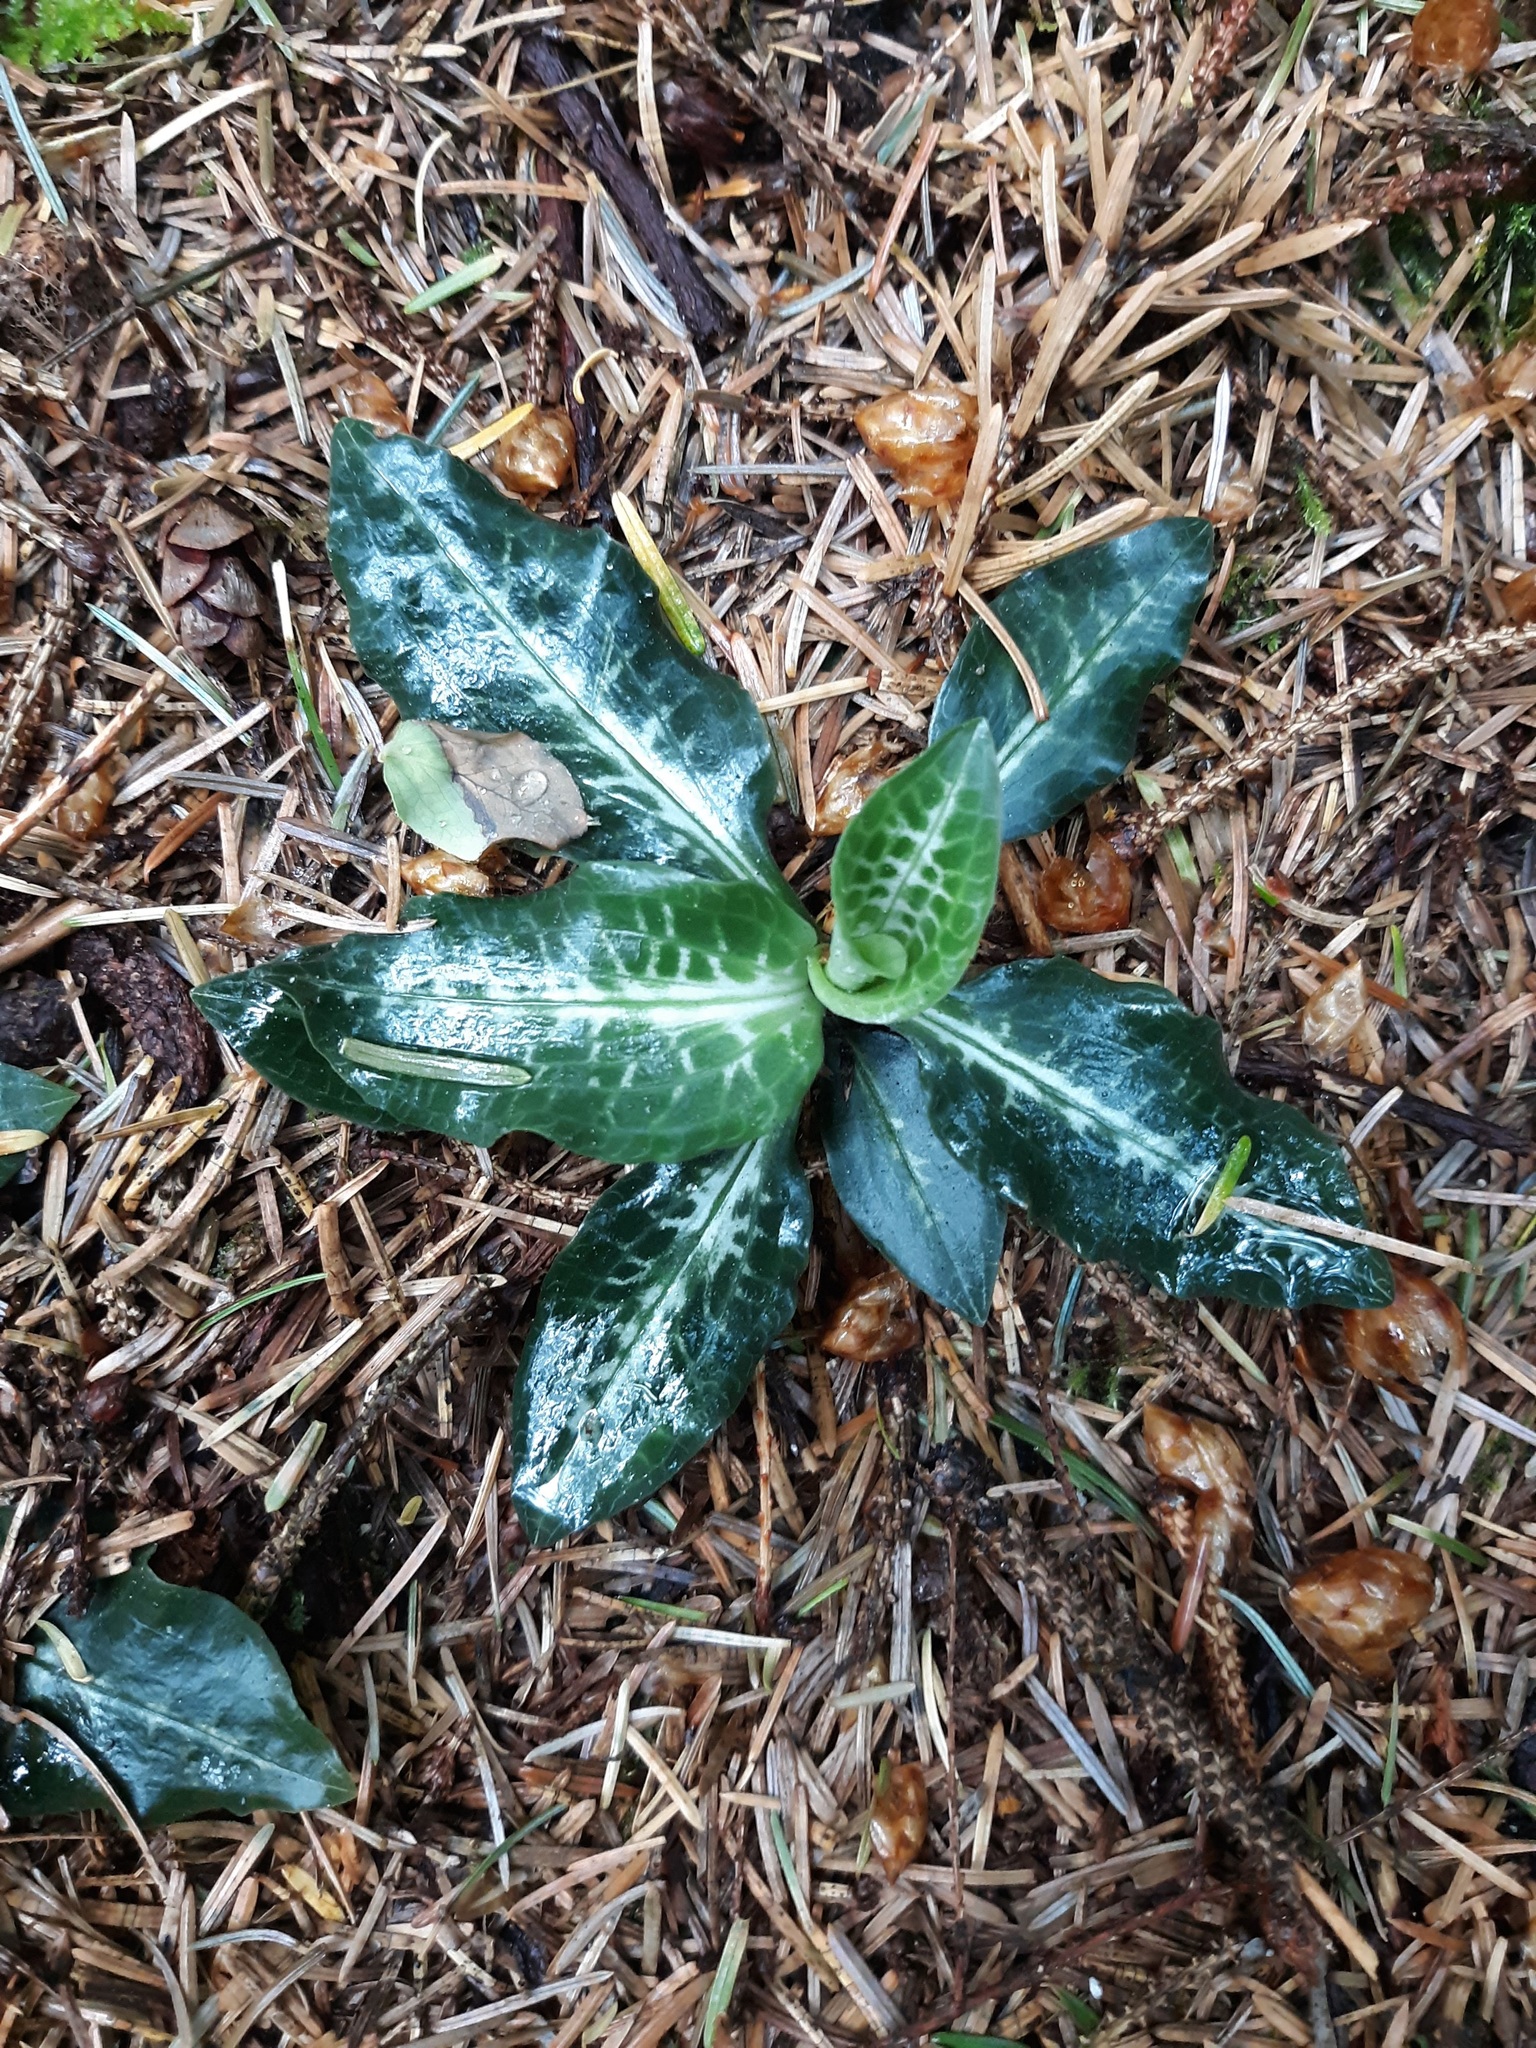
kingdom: Plantae
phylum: Tracheophyta
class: Liliopsida
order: Asparagales
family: Orchidaceae
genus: Goodyera
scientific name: Goodyera oblongifolia
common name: Giant rattlesnake-plantain
